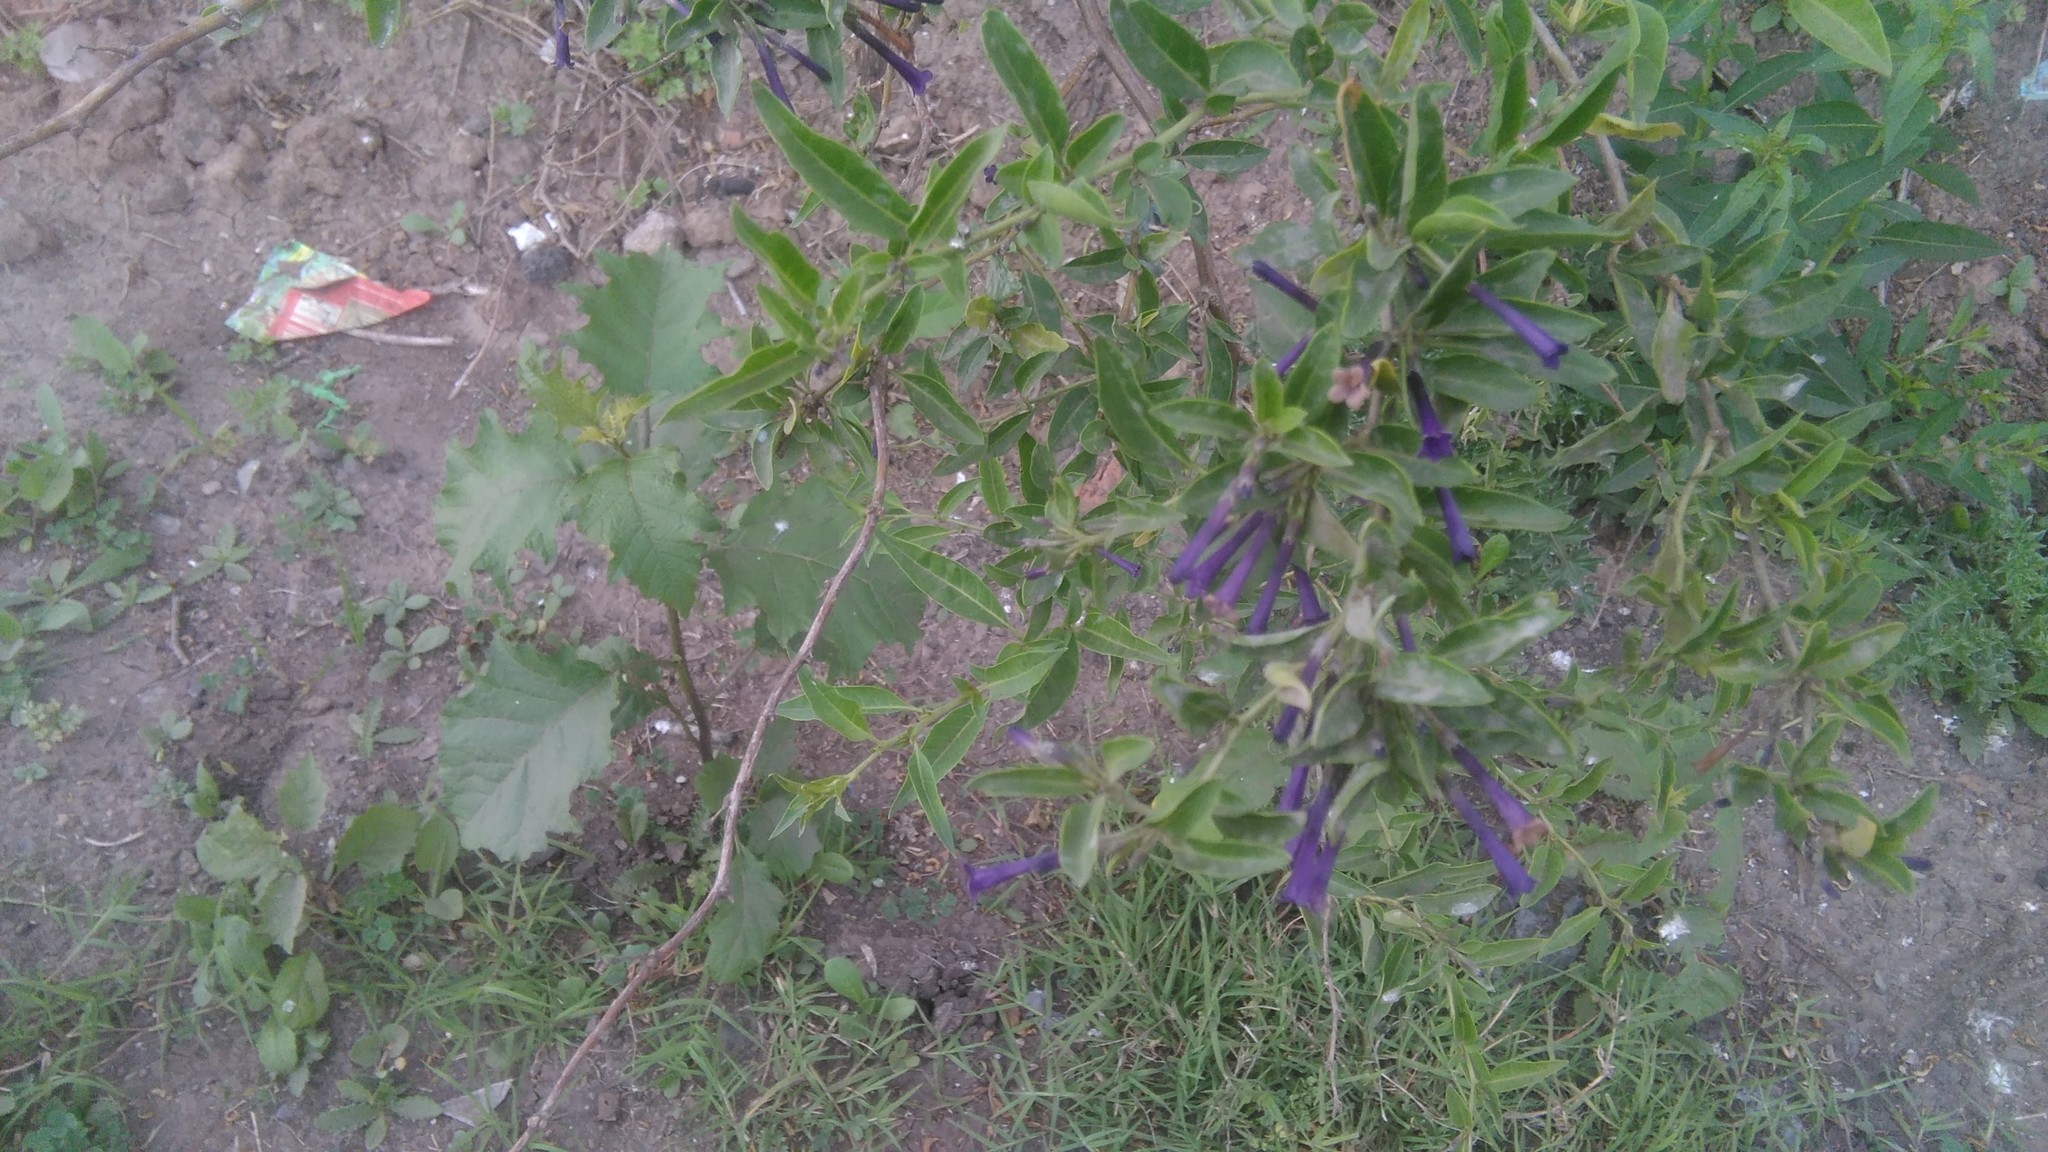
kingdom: Plantae
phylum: Tracheophyta
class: Magnoliopsida
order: Solanales
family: Solanaceae
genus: Lycium
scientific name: Lycium cestroides
